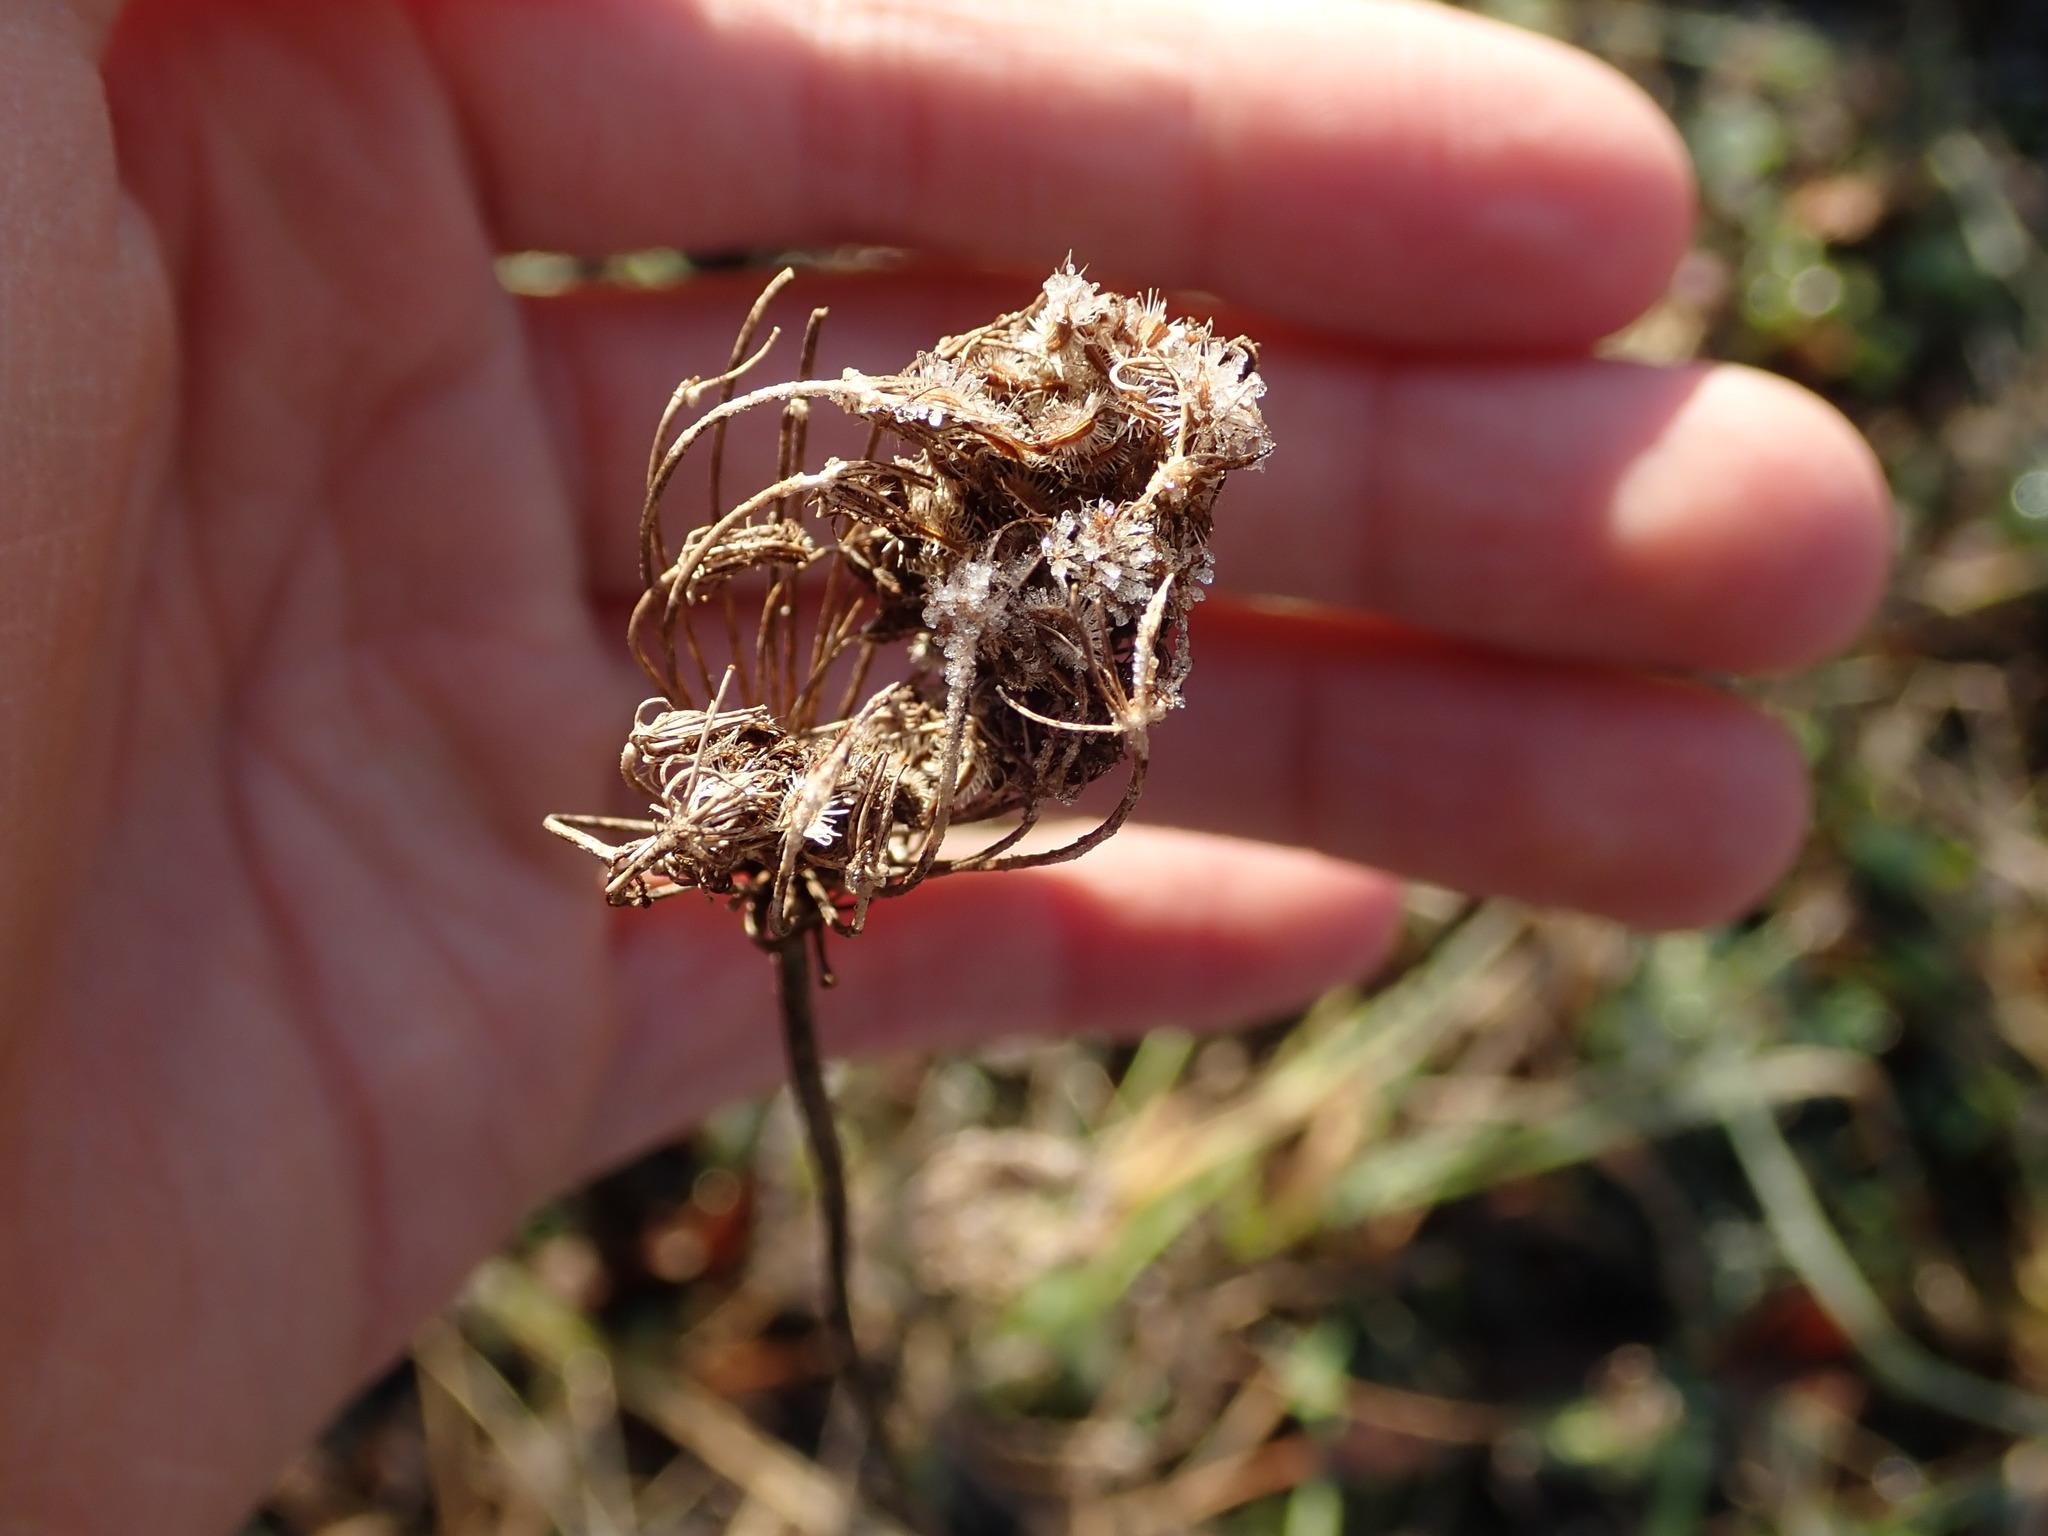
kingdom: Plantae
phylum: Tracheophyta
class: Magnoliopsida
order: Apiales
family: Apiaceae
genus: Daucus
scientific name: Daucus carota
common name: Wild carrot
